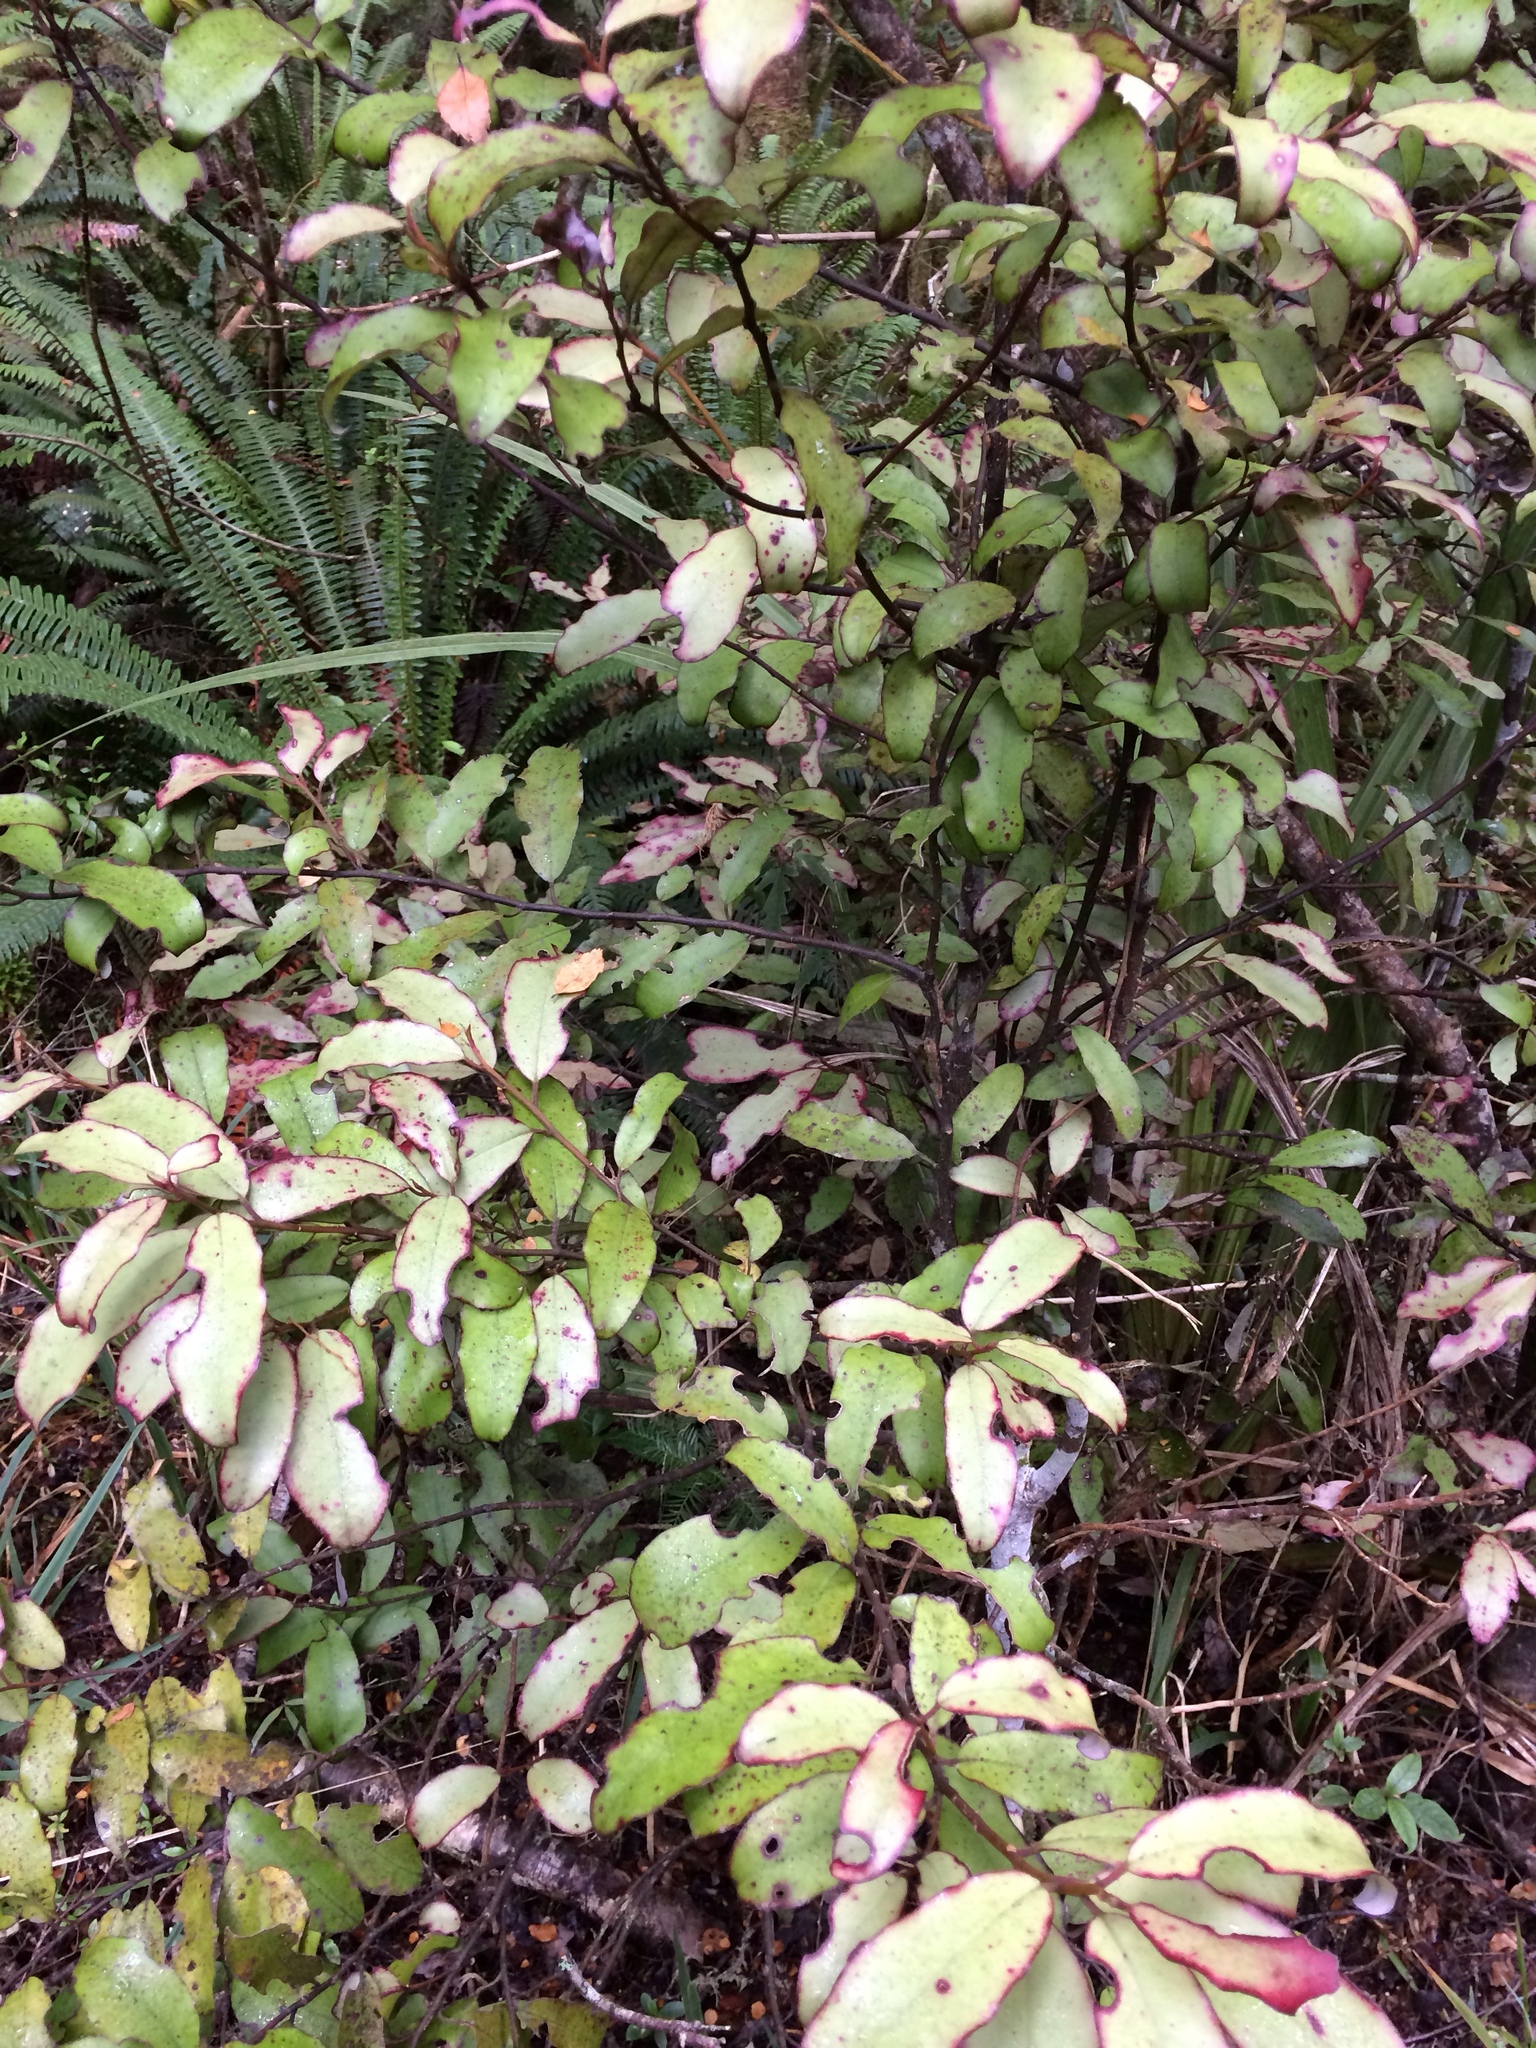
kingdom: Plantae
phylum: Tracheophyta
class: Magnoliopsida
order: Canellales
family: Winteraceae
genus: Pseudowintera
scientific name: Pseudowintera colorata
